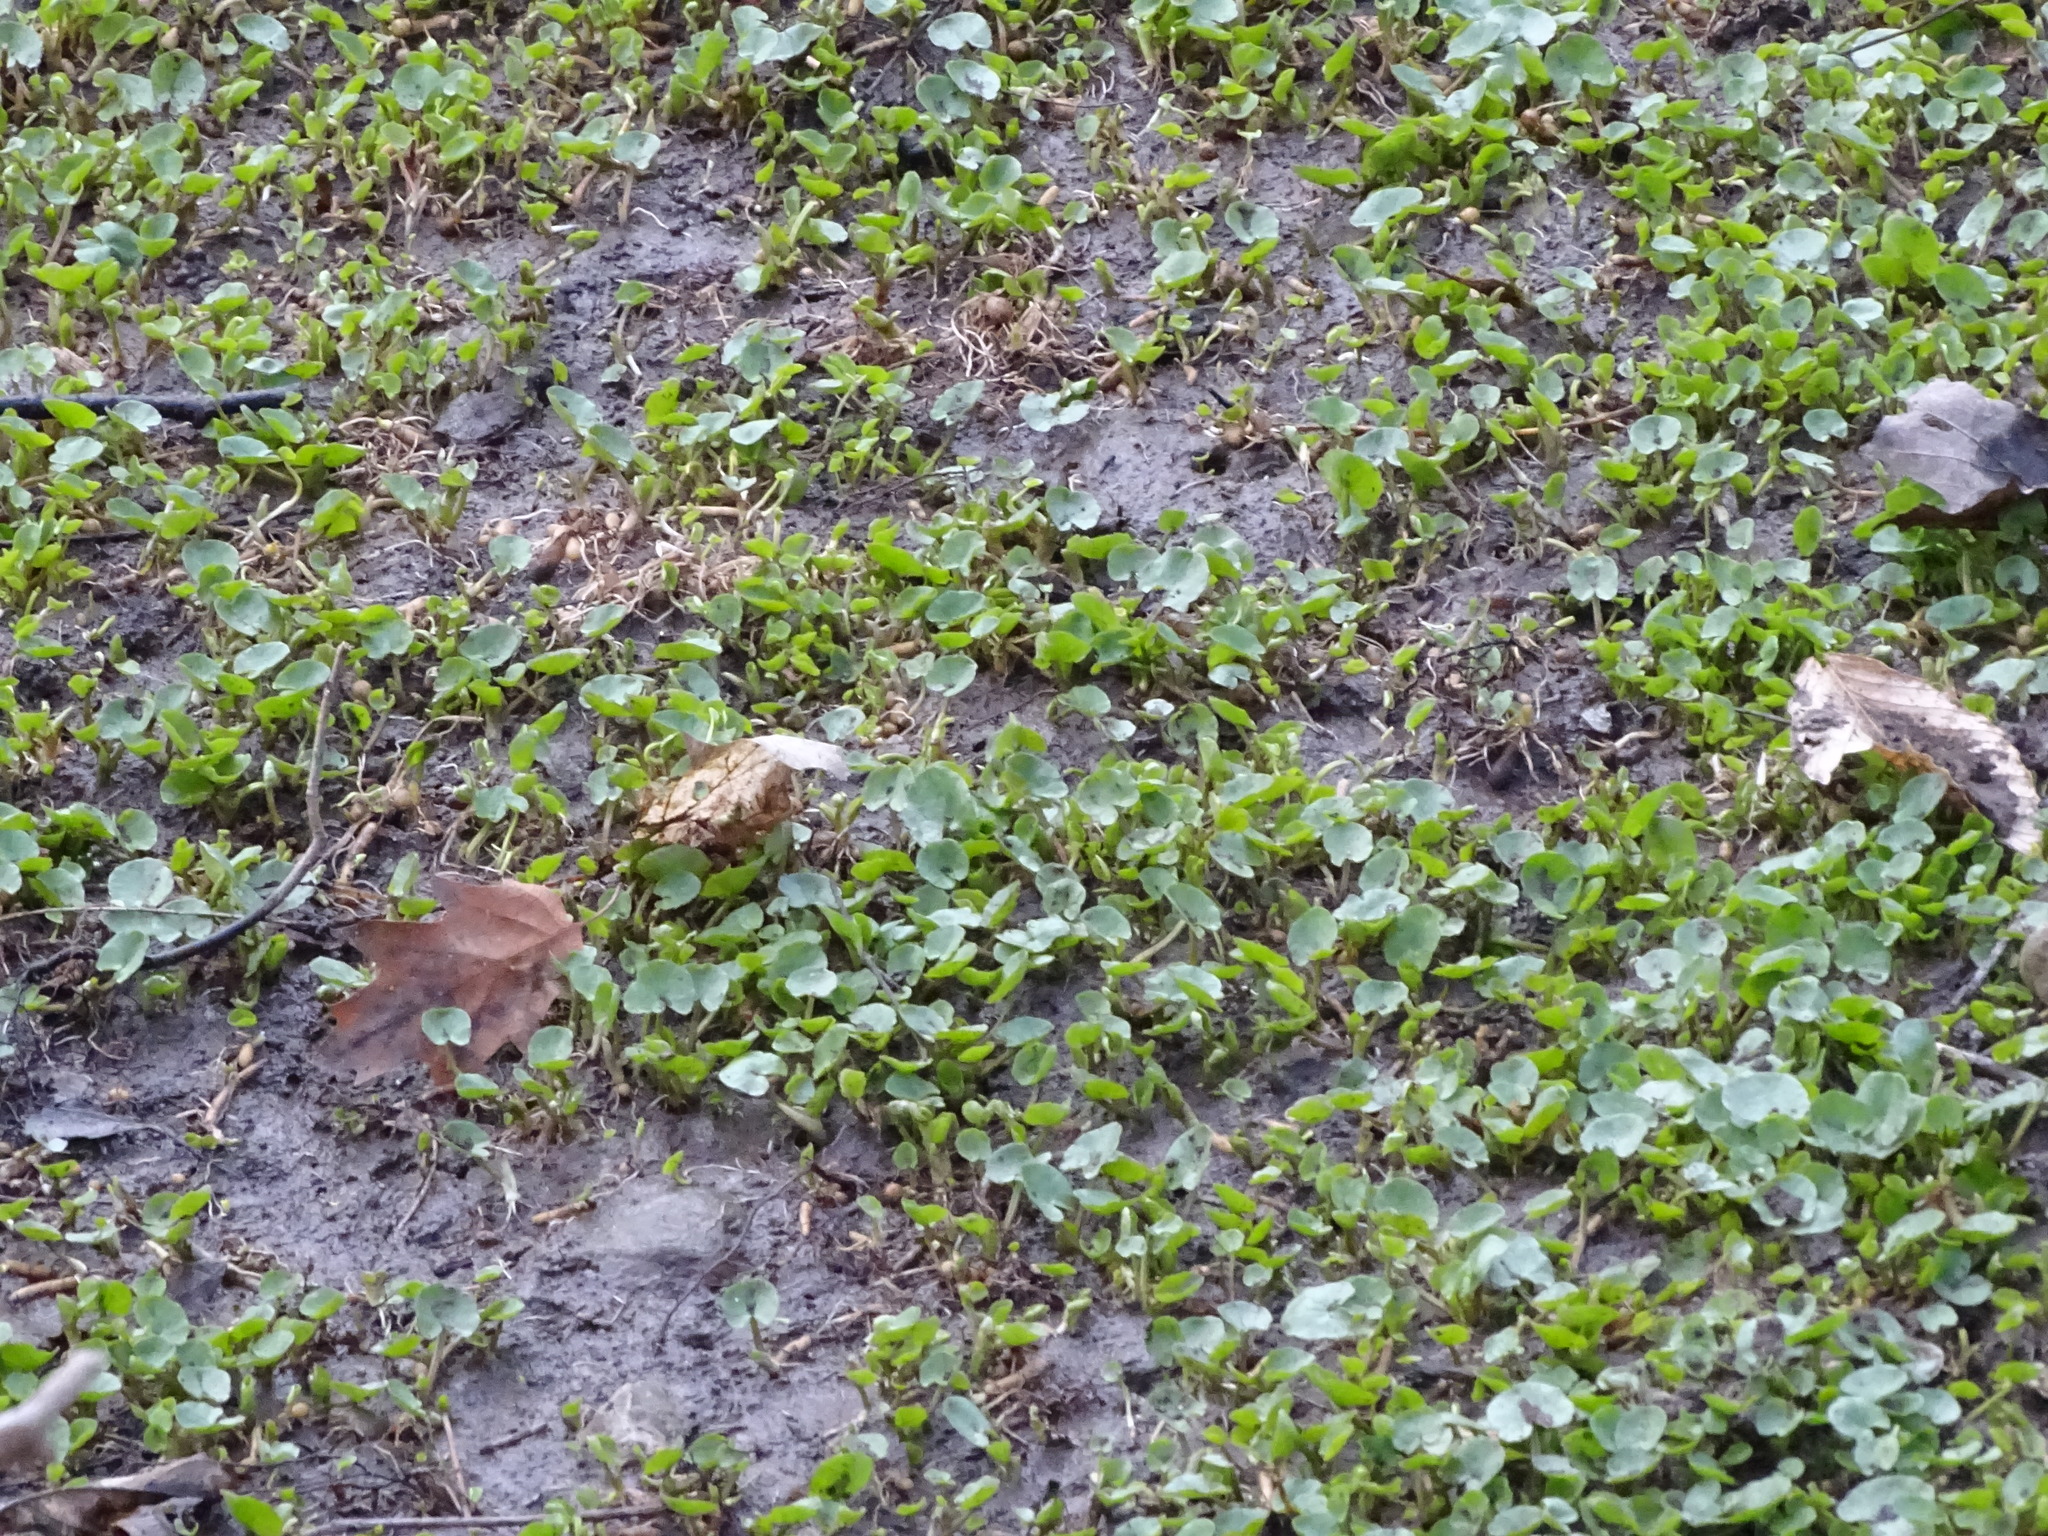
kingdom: Plantae
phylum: Tracheophyta
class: Magnoliopsida
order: Ranunculales
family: Ranunculaceae
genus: Ficaria
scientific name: Ficaria verna
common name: Lesser celandine
